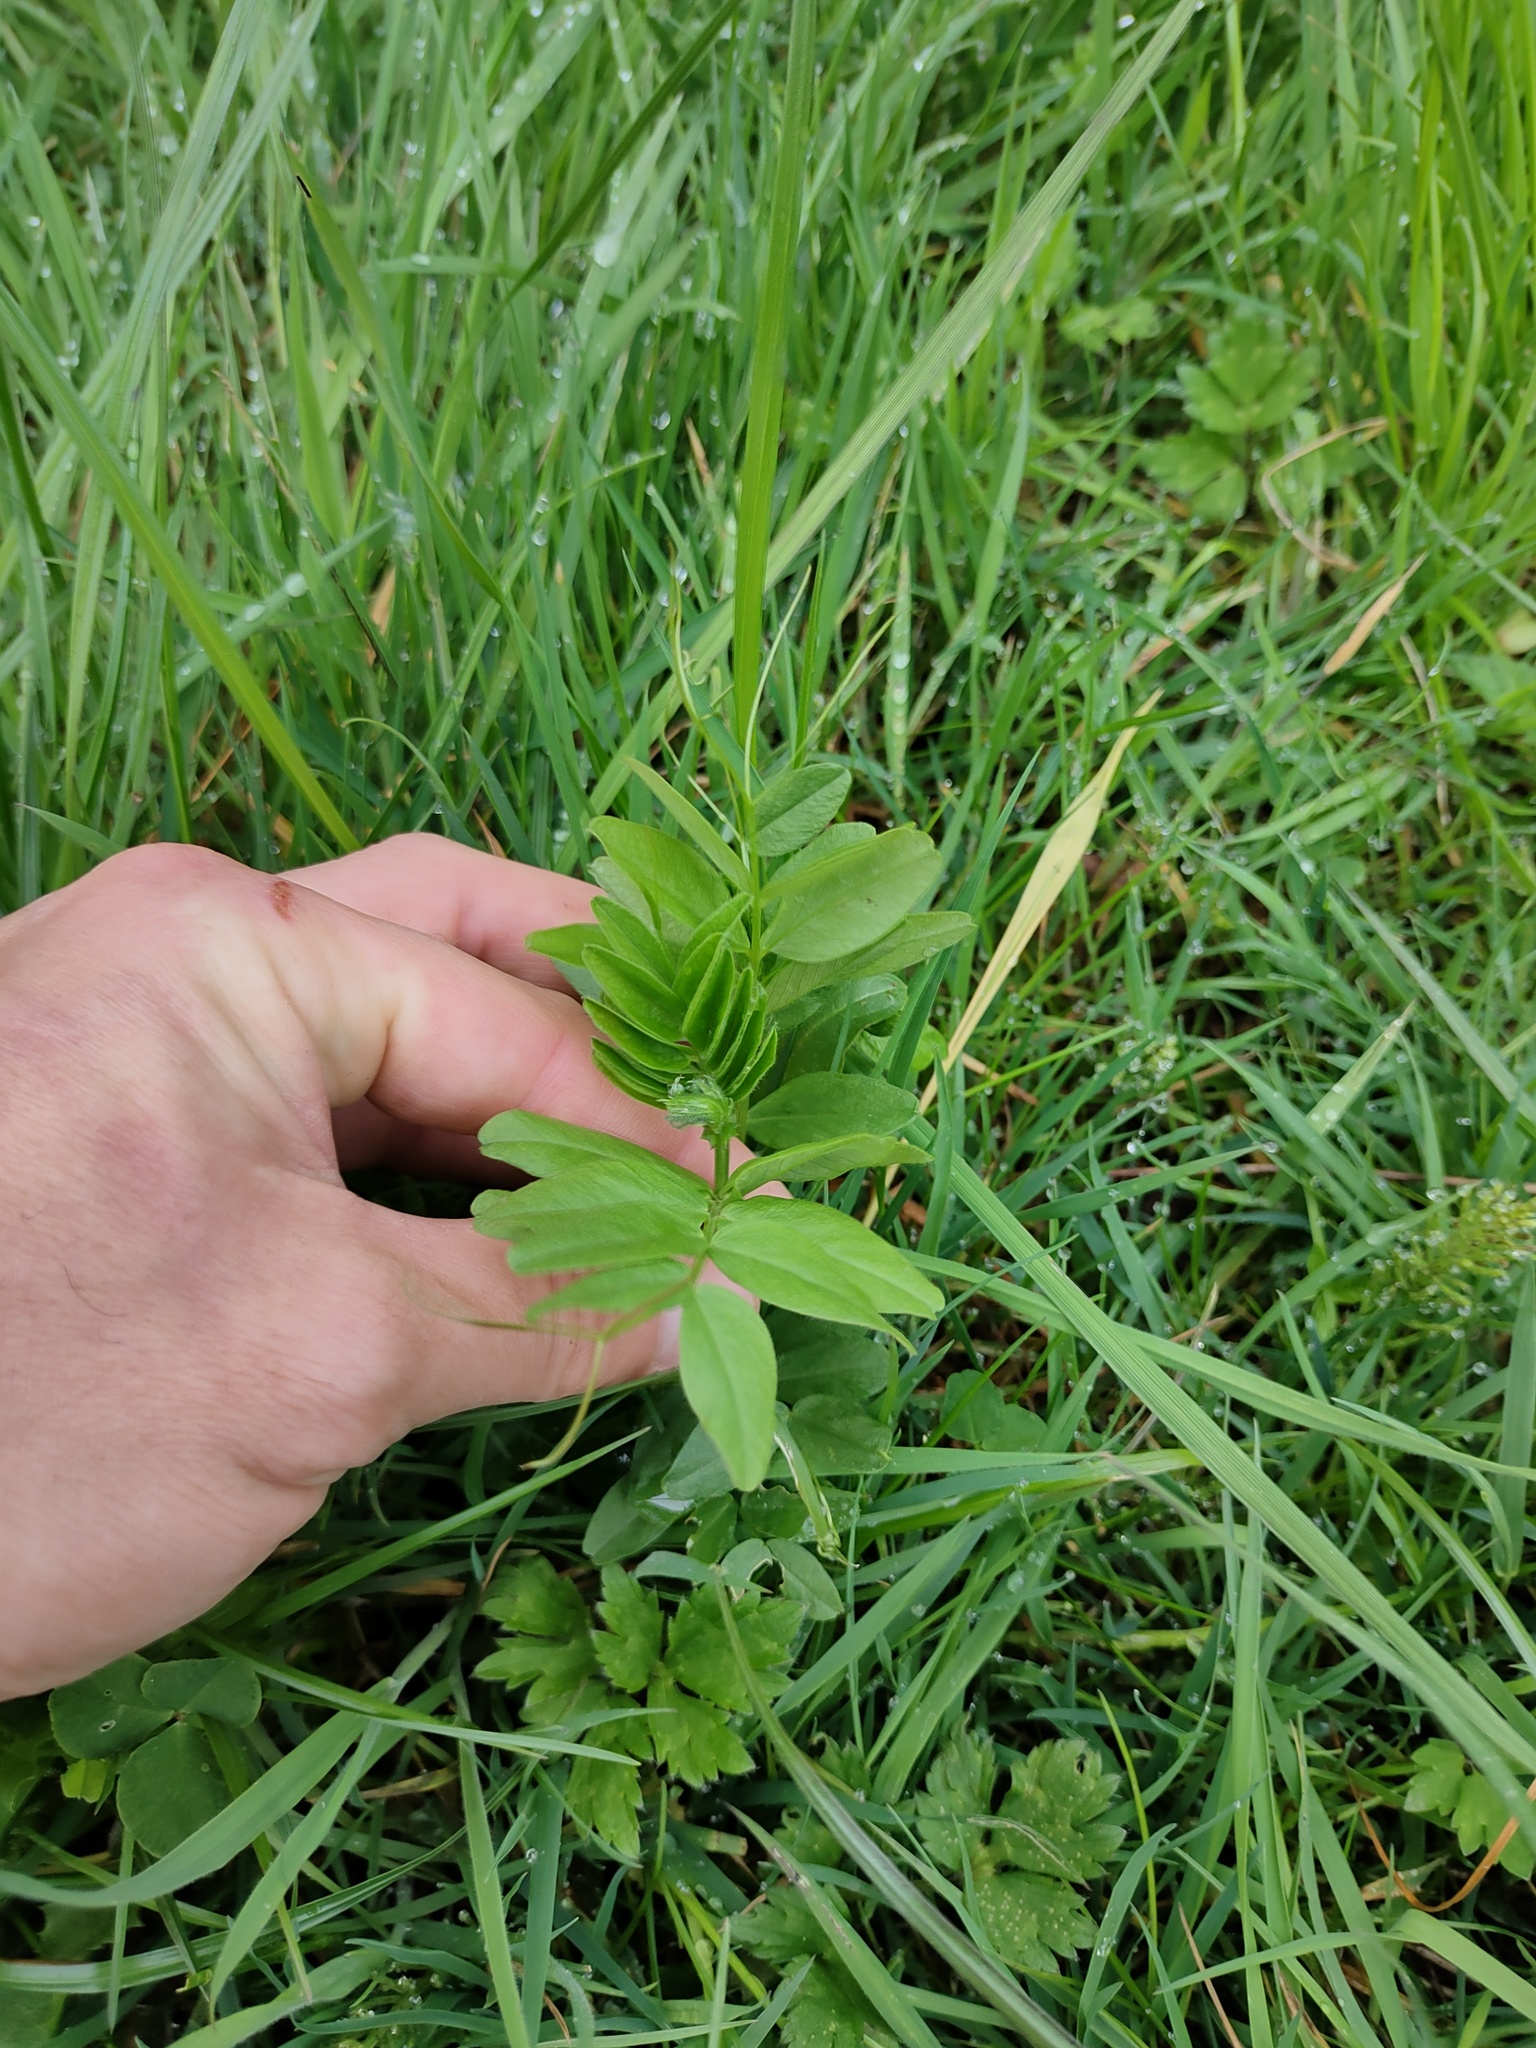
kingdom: Plantae
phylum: Tracheophyta
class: Magnoliopsida
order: Fabales
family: Fabaceae
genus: Vicia
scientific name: Vicia sepium
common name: Bush vetch
